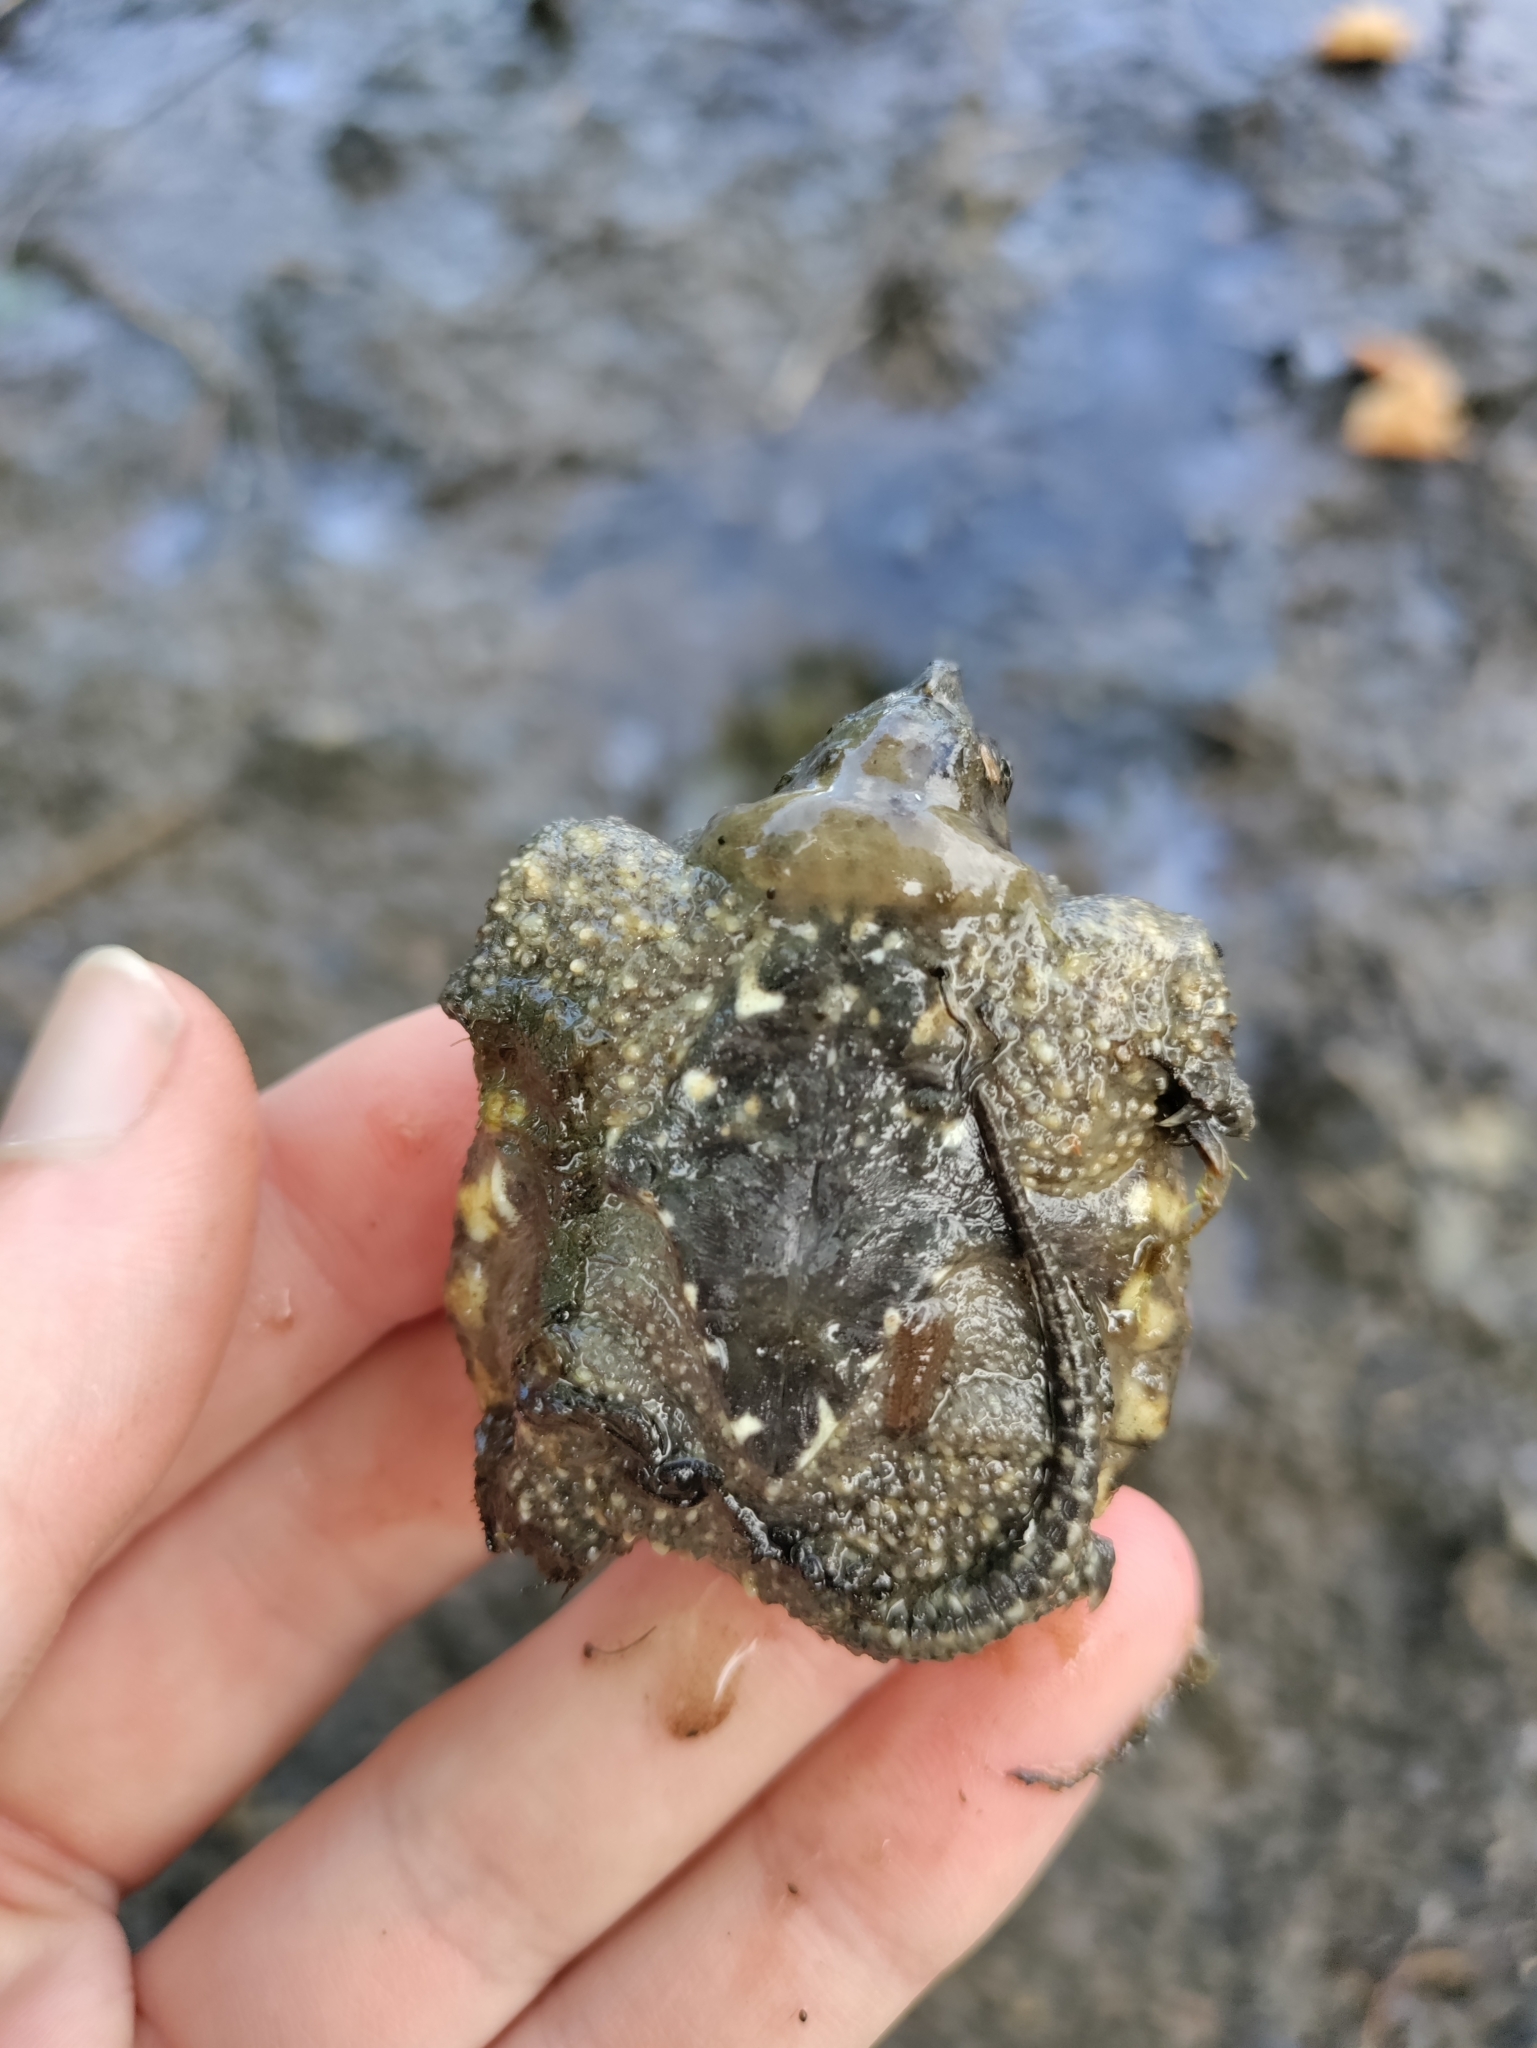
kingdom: Animalia
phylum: Chordata
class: Testudines
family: Chelydridae
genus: Chelydra
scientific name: Chelydra serpentina
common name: Common snapping turtle
